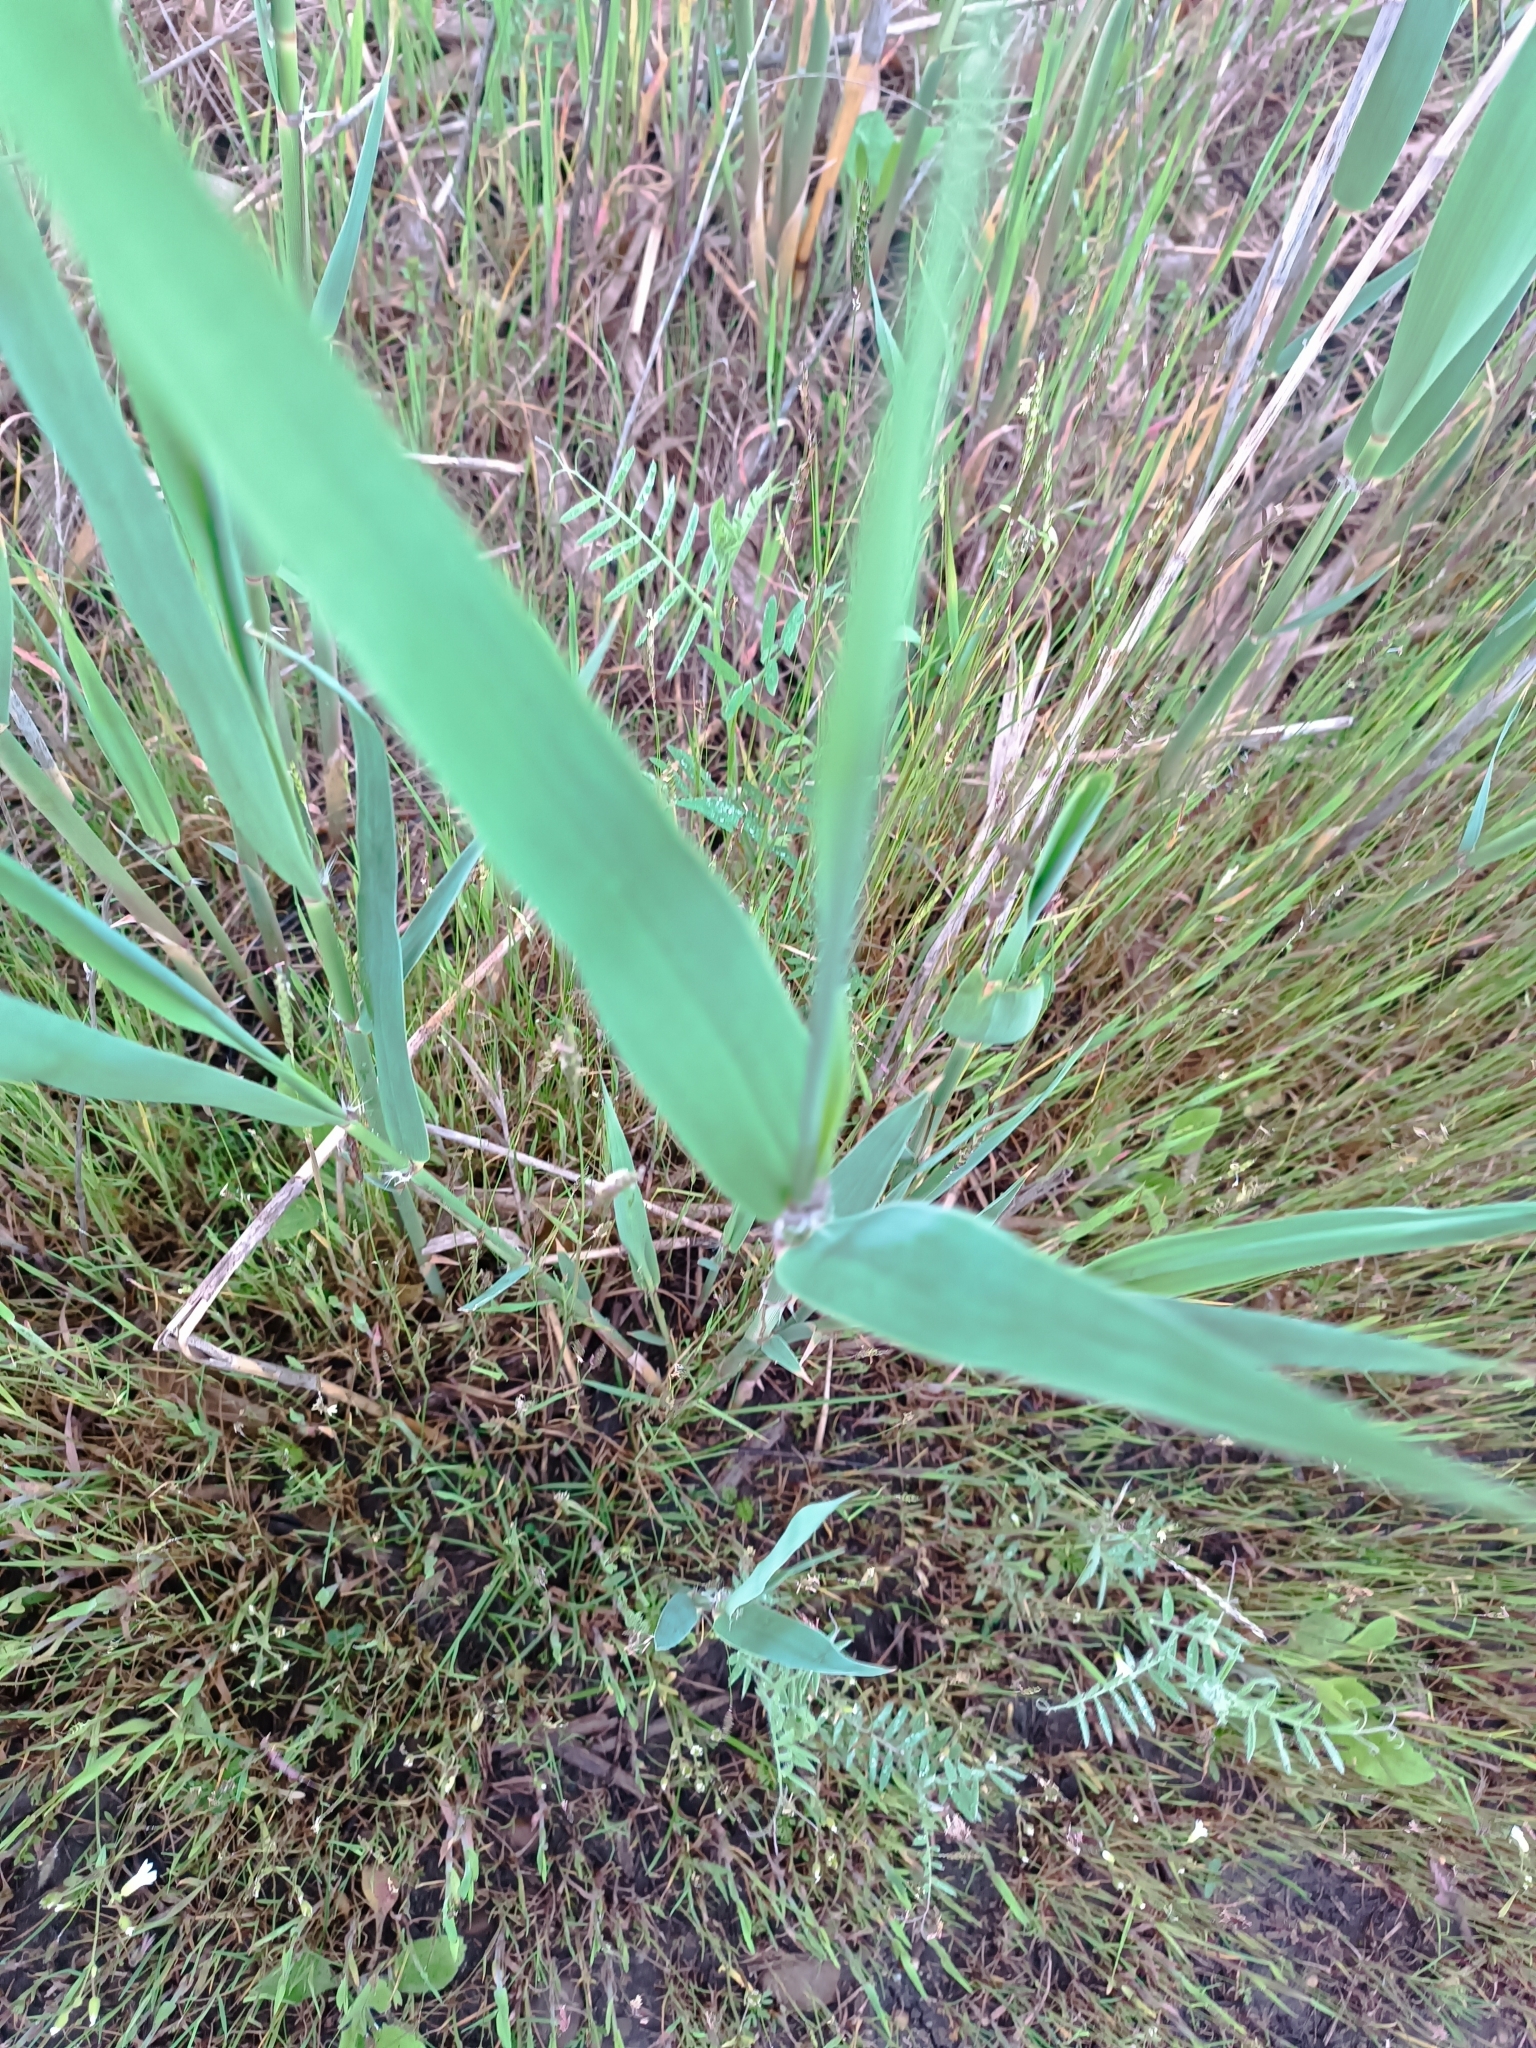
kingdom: Plantae
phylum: Tracheophyta
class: Liliopsida
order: Poales
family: Poaceae
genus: Phragmites
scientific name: Phragmites australis
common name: Common reed
